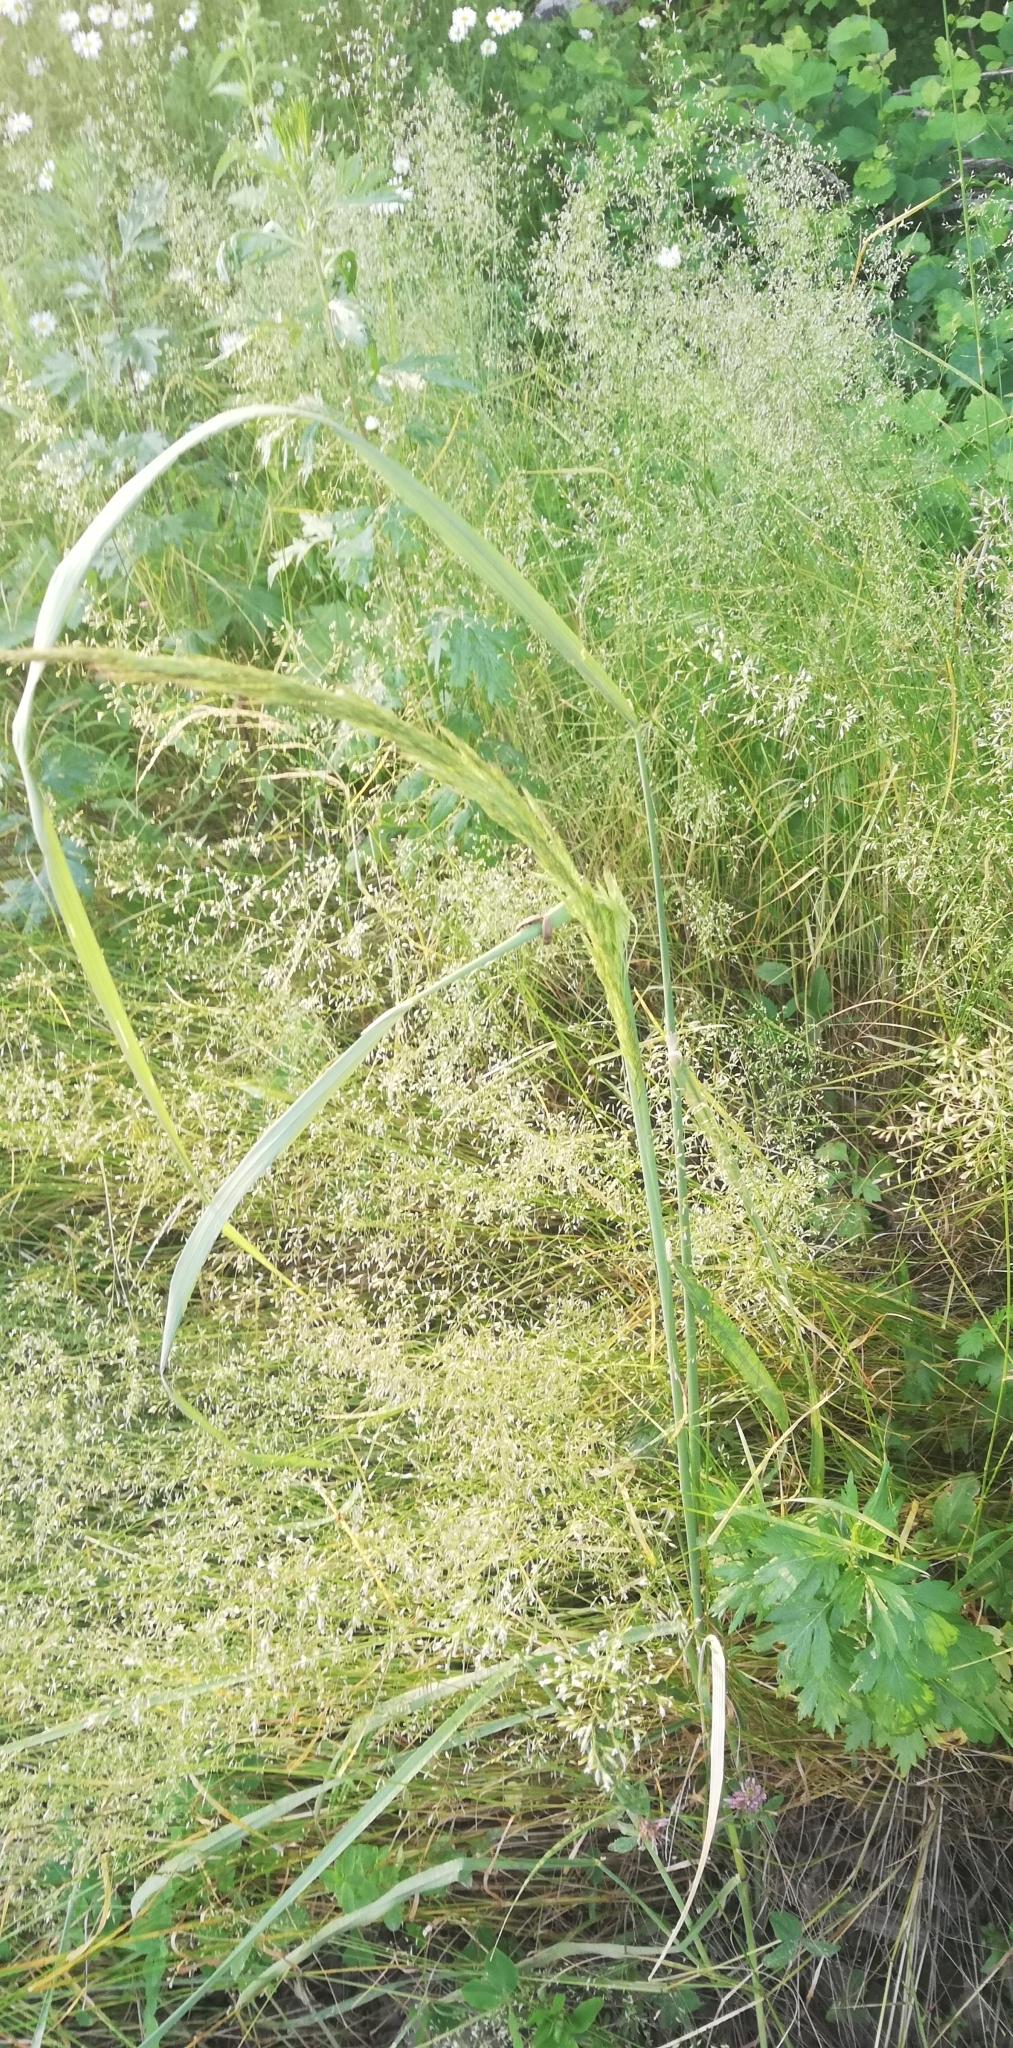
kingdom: Plantae
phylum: Tracheophyta
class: Liliopsida
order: Poales
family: Poaceae
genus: Calamagrostis
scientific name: Calamagrostis epigejos
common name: Wood small-reed
